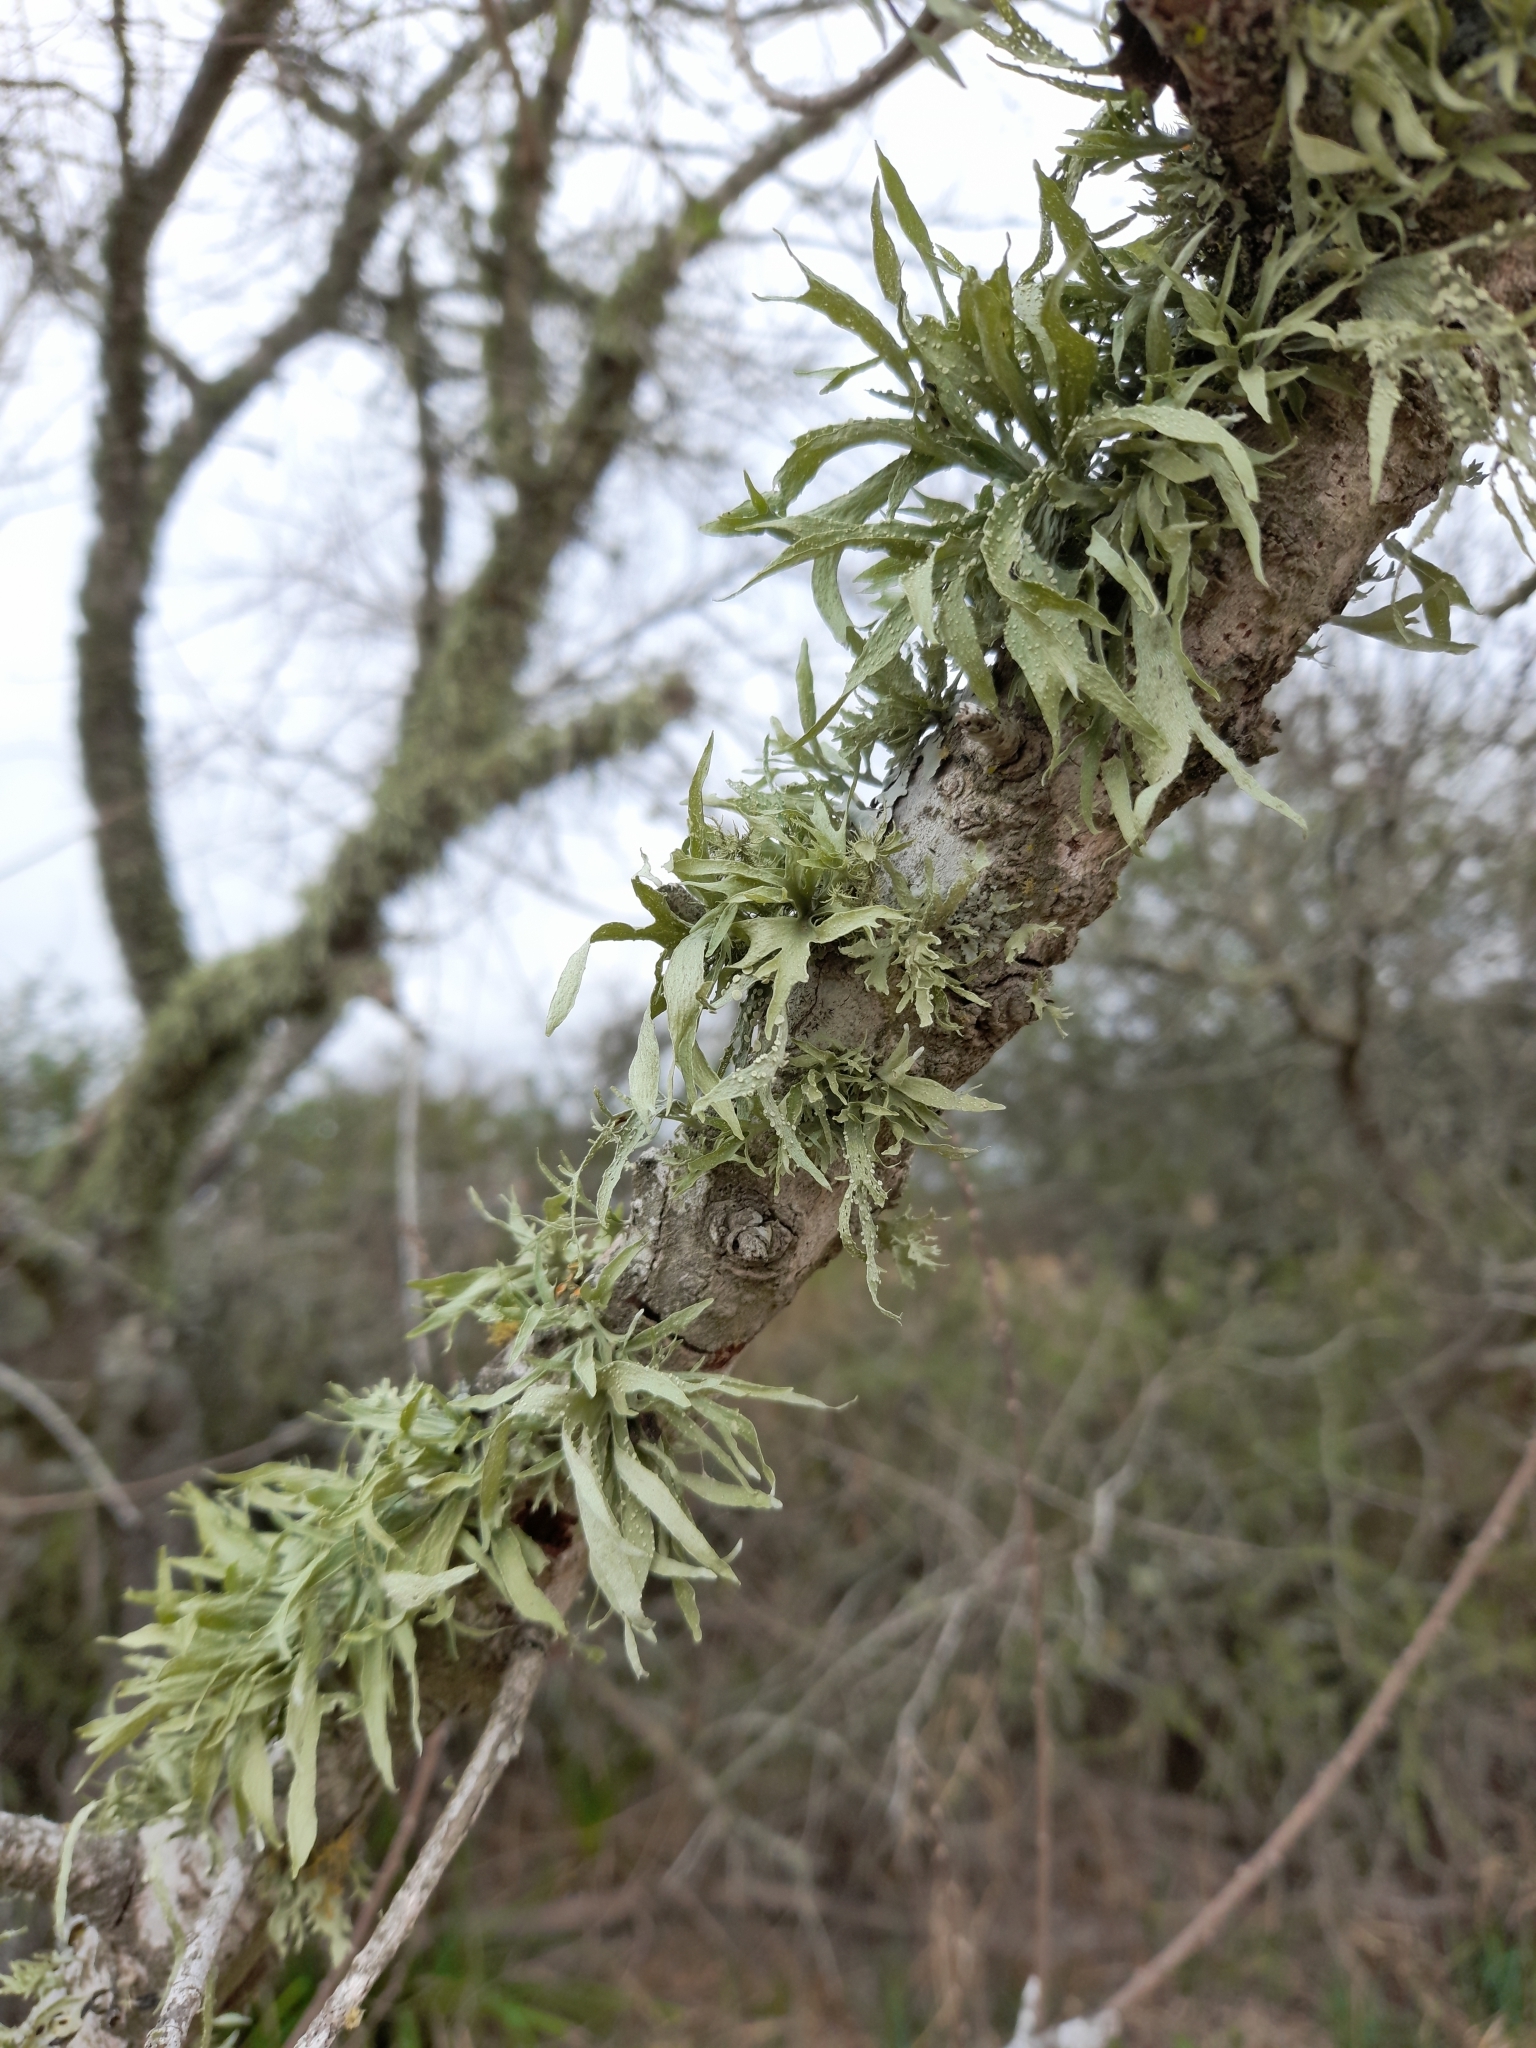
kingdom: Fungi
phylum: Ascomycota
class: Lecanoromycetes
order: Lecanorales
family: Ramalinaceae
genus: Ramalina
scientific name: Ramalina celastri
